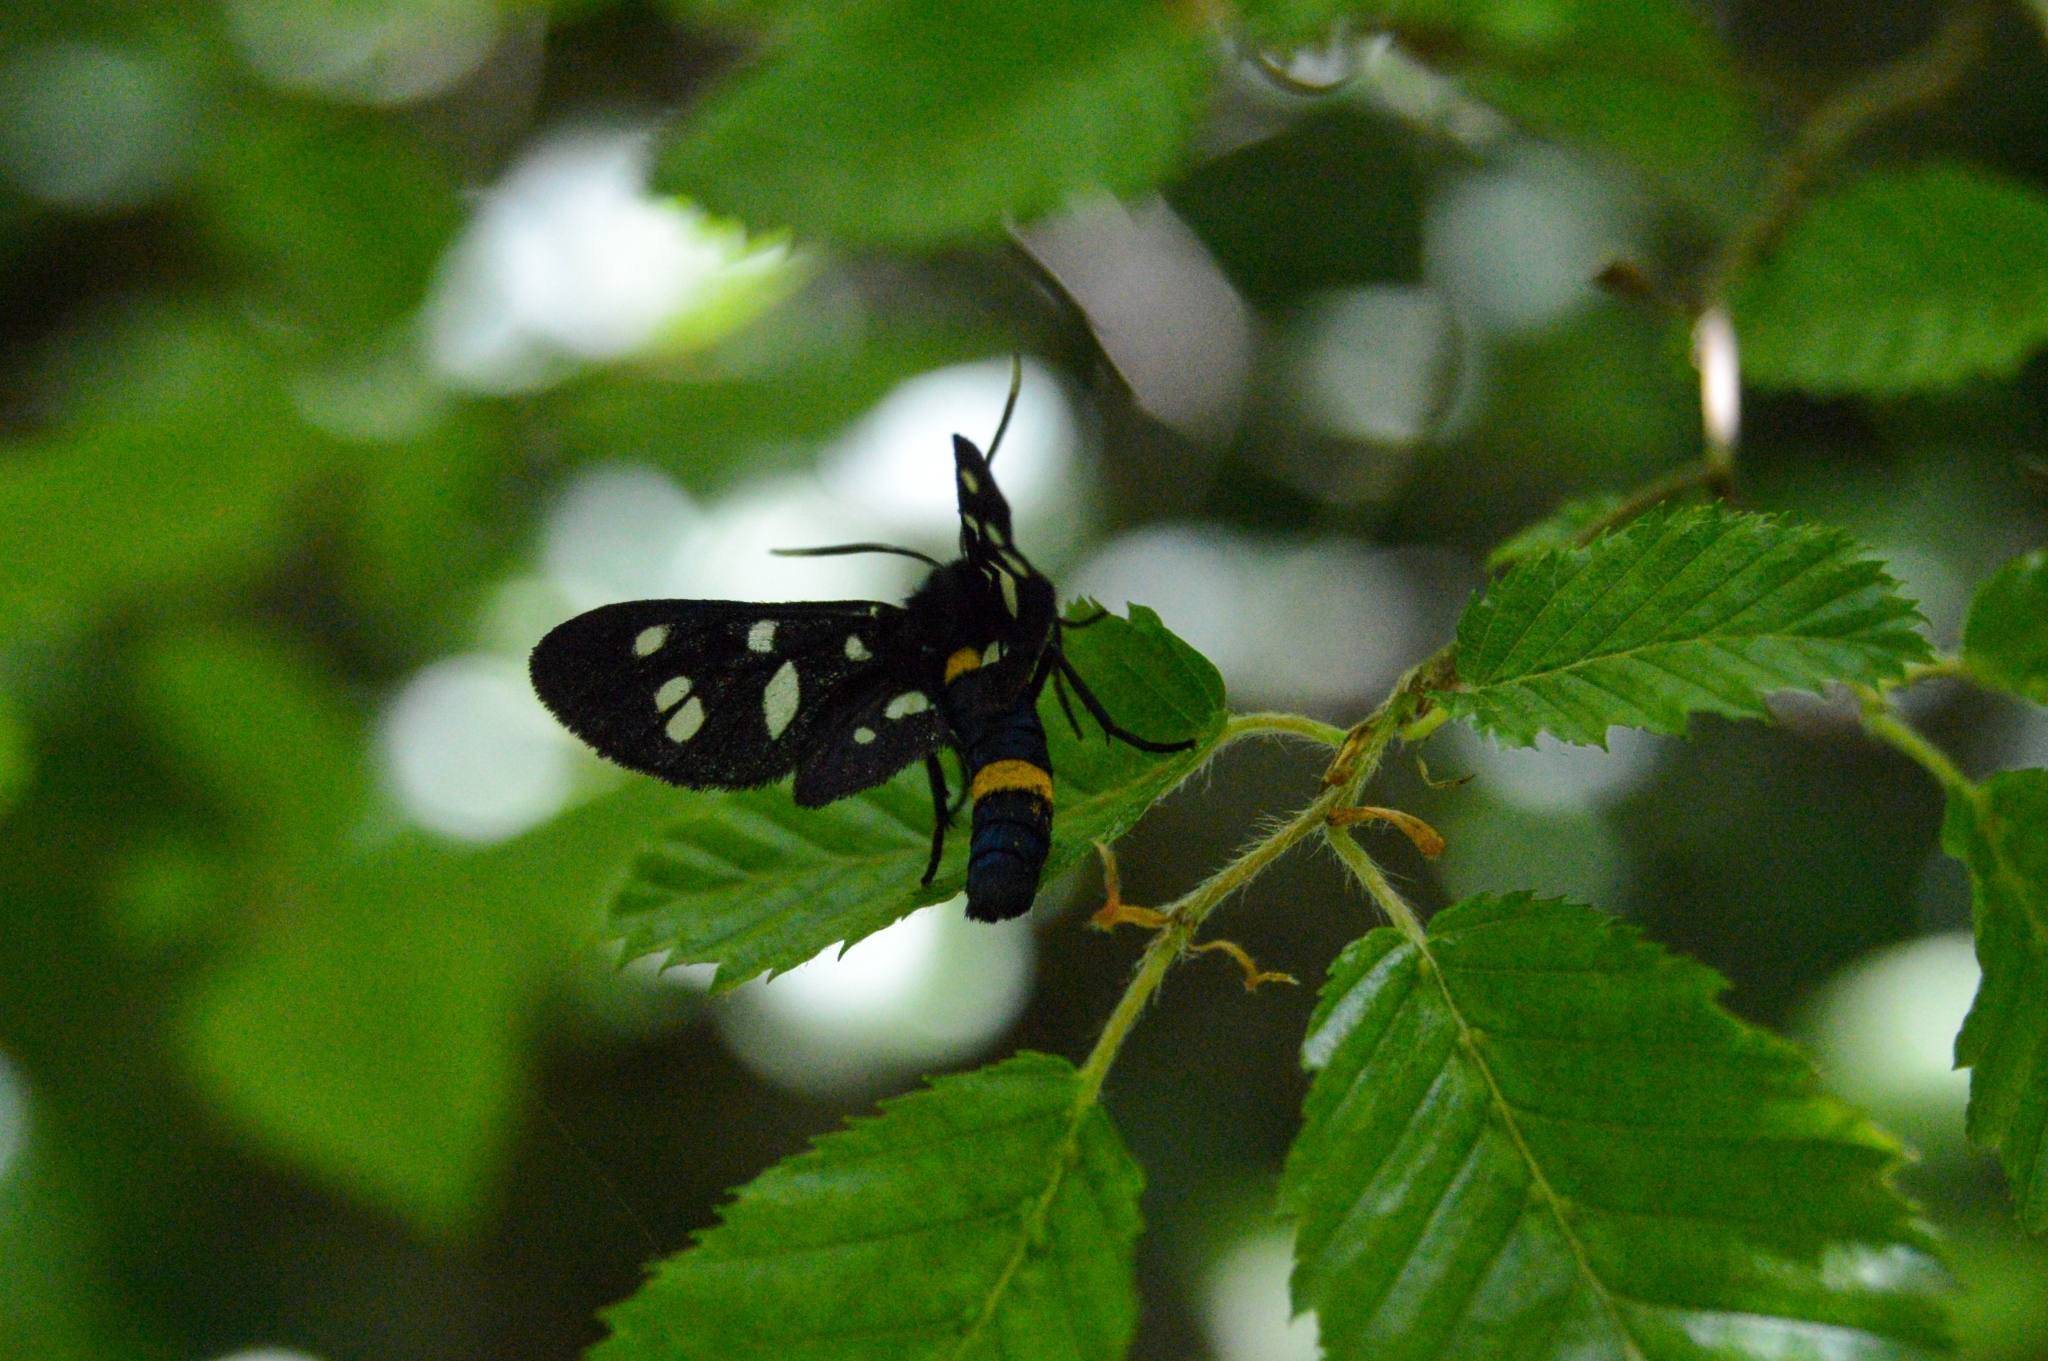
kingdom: Animalia
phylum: Arthropoda
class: Insecta
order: Lepidoptera
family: Erebidae
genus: Amata
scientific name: Amata nigricornis
